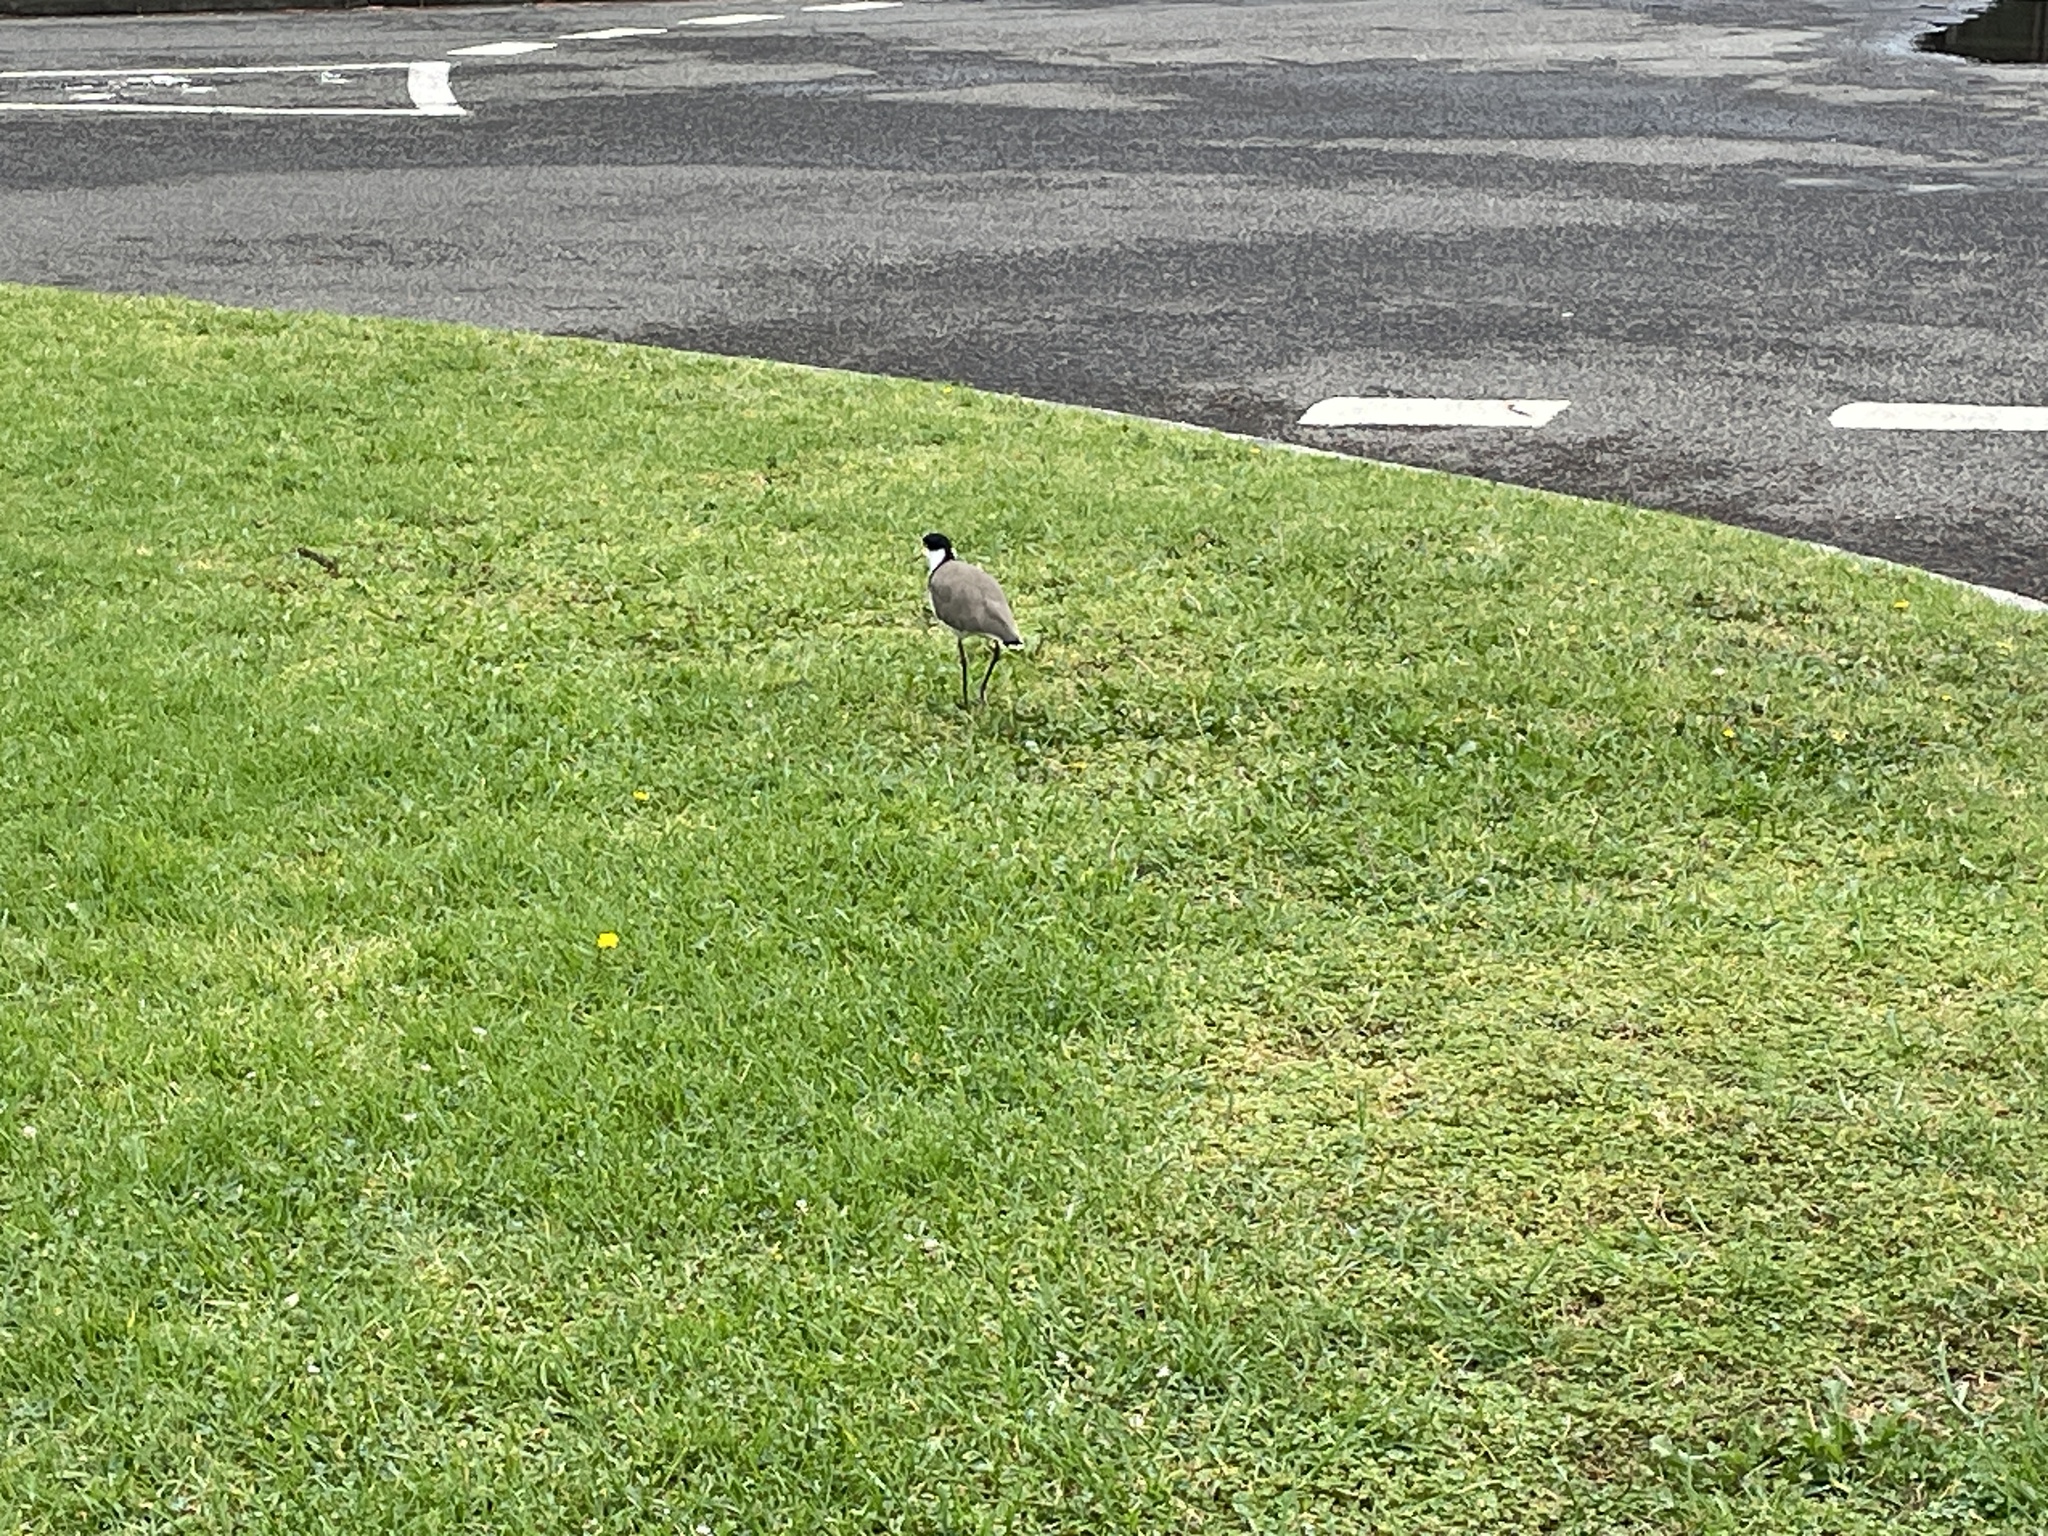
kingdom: Animalia
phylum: Chordata
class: Aves
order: Charadriiformes
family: Charadriidae
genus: Vanellus
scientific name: Vanellus miles
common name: Masked lapwing
